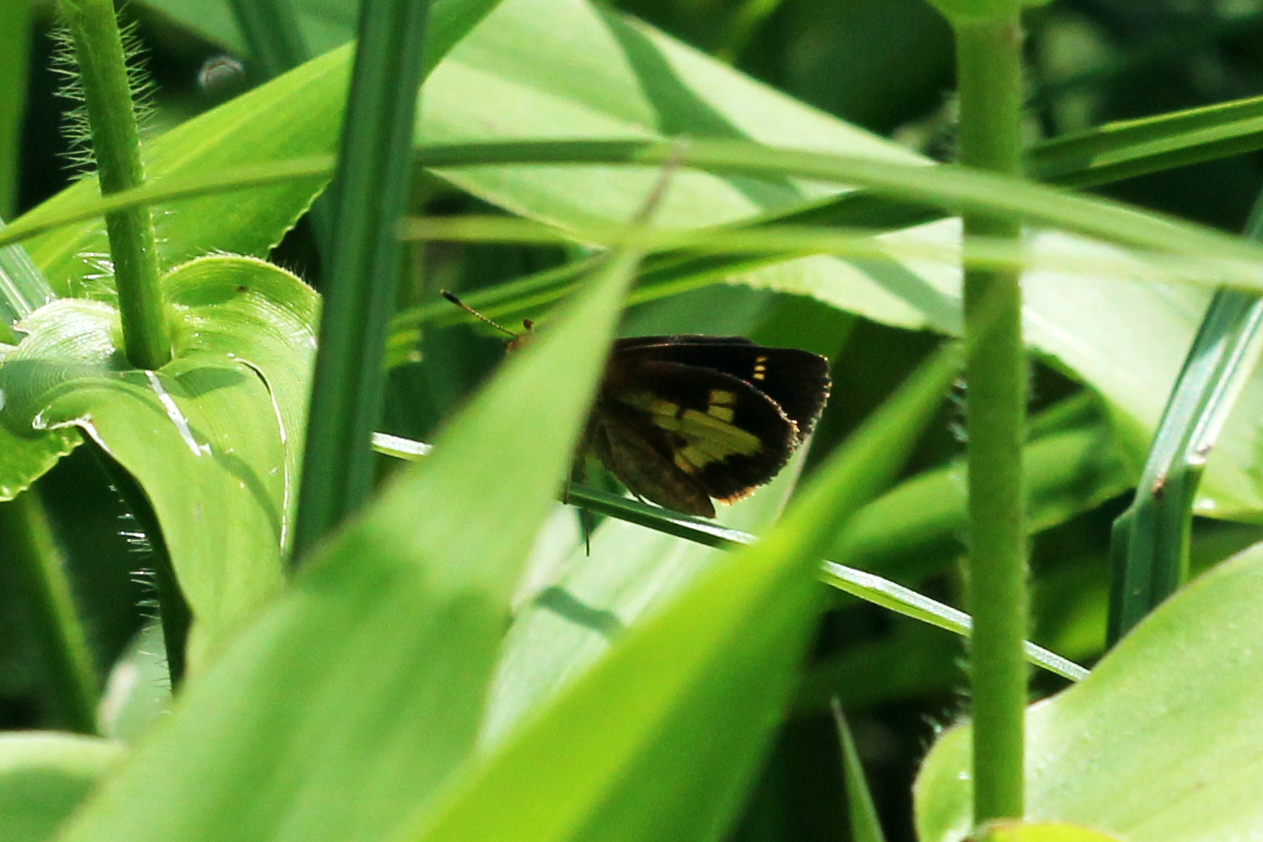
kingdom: Animalia
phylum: Arthropoda
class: Insecta
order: Lepidoptera
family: Hesperiidae
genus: Poanes
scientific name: Poanes massasoit
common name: Mulberrywing
